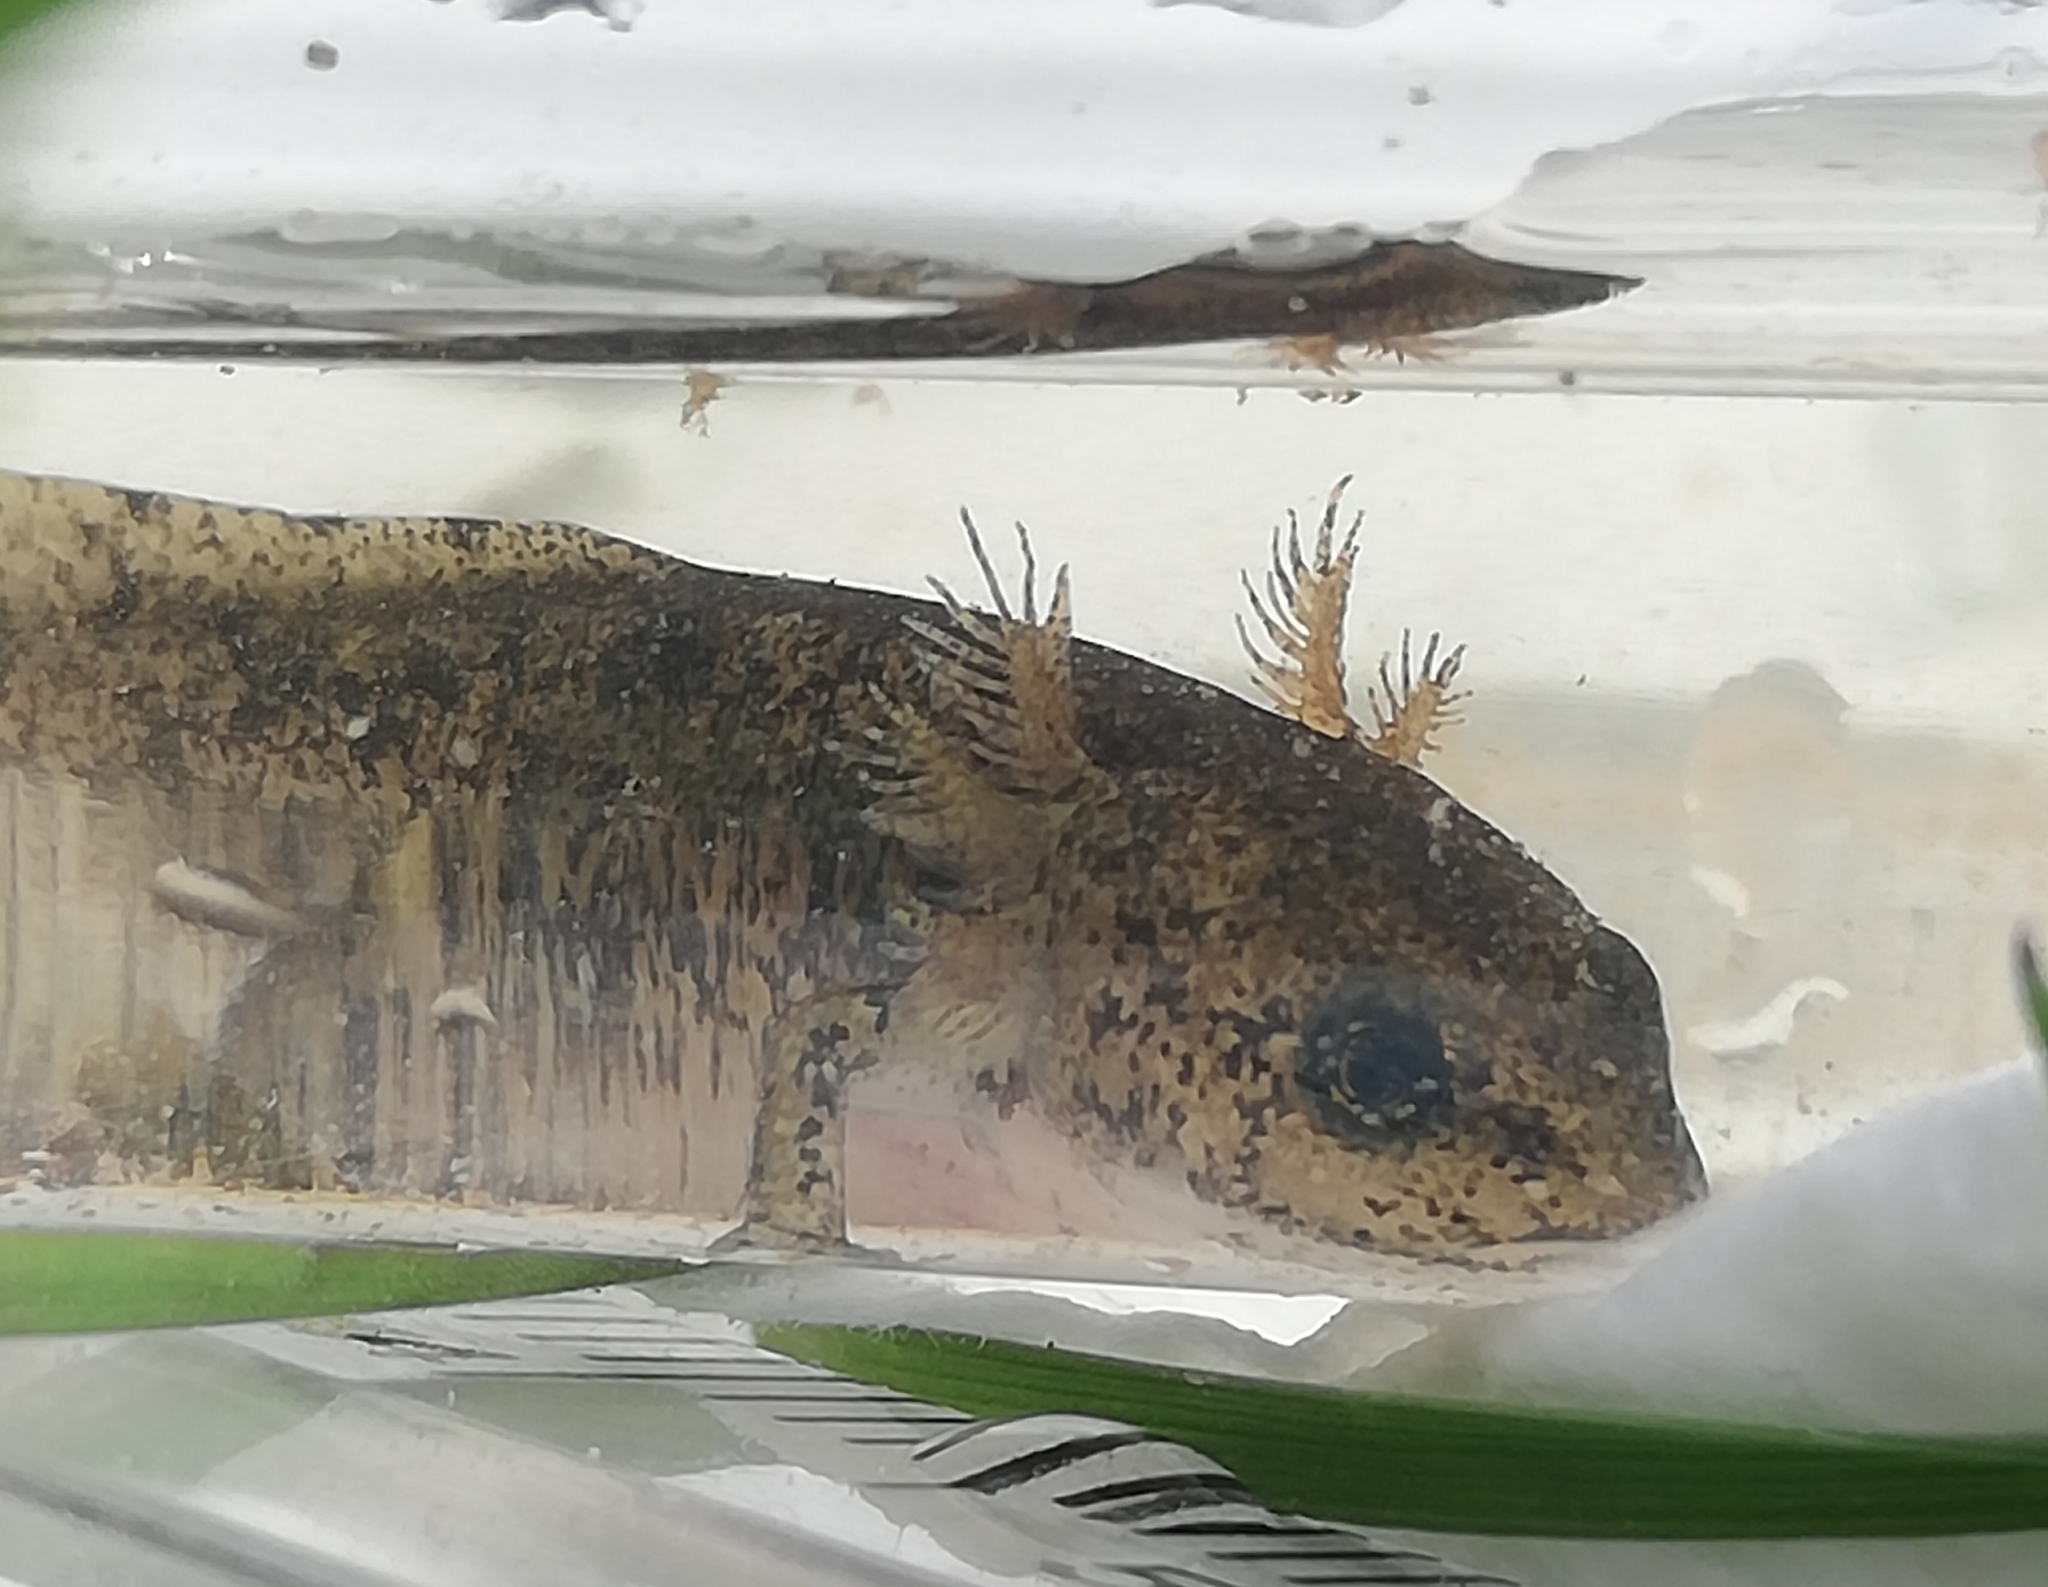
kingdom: Animalia
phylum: Chordata
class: Amphibia
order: Caudata
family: Salamandridae
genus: Salamandra
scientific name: Salamandra salamandra
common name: Fire salamander
